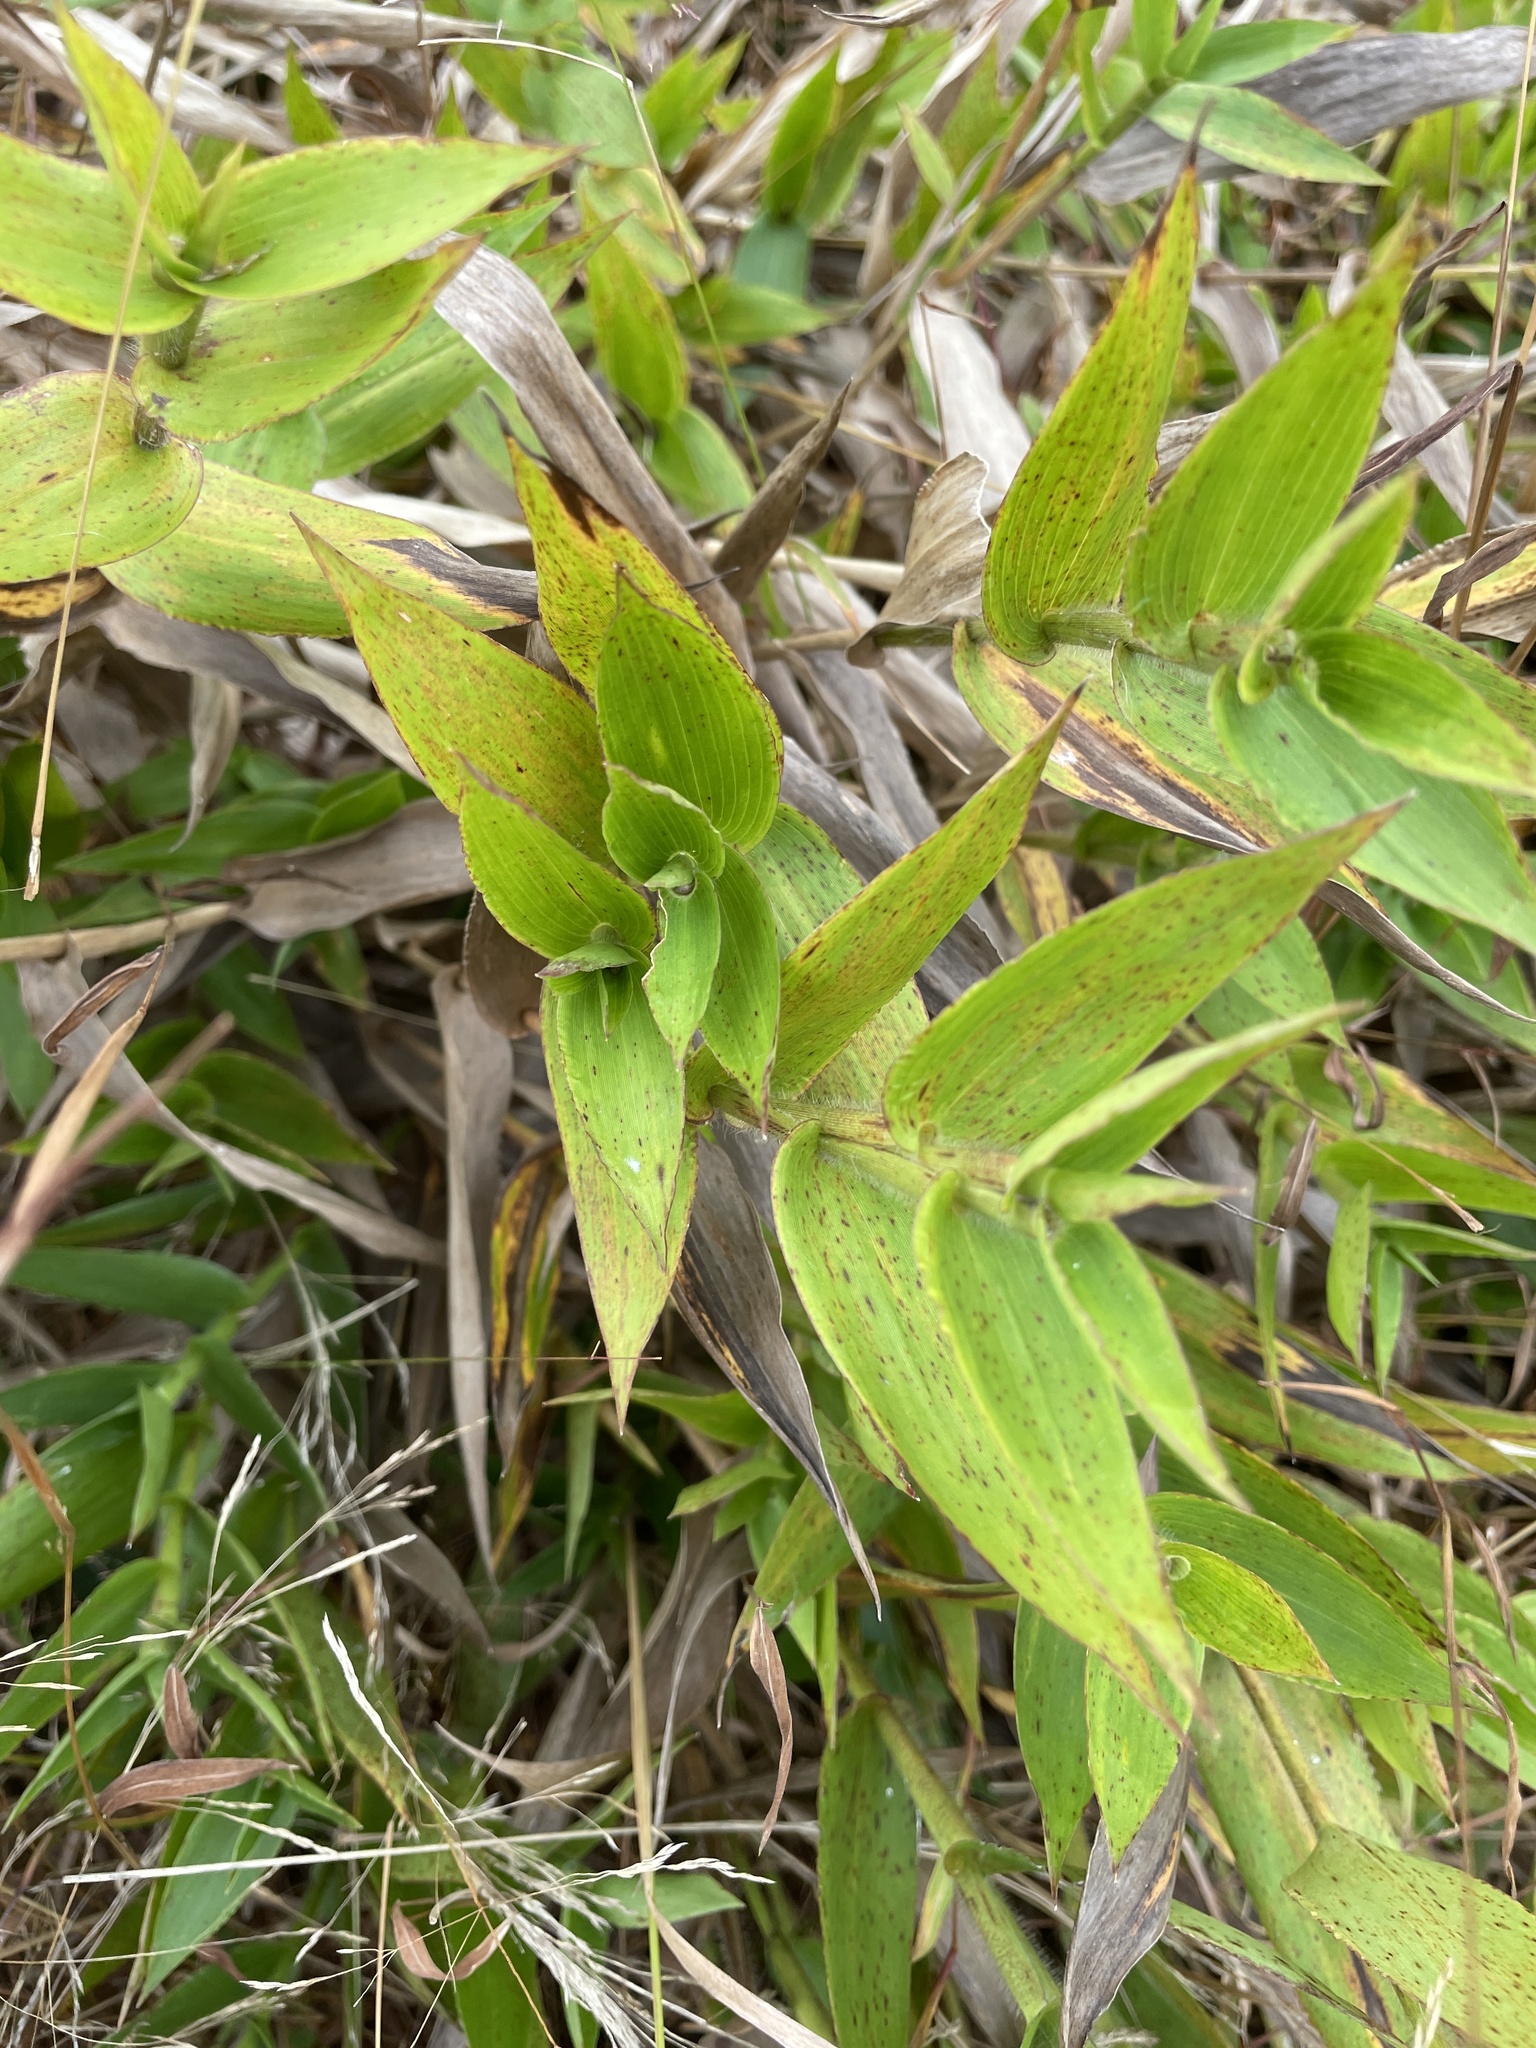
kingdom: Plantae
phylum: Tracheophyta
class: Liliopsida
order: Poales
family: Poaceae
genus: Dichanthelium
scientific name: Dichanthelium clandestinum
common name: Deer-tongue grass
